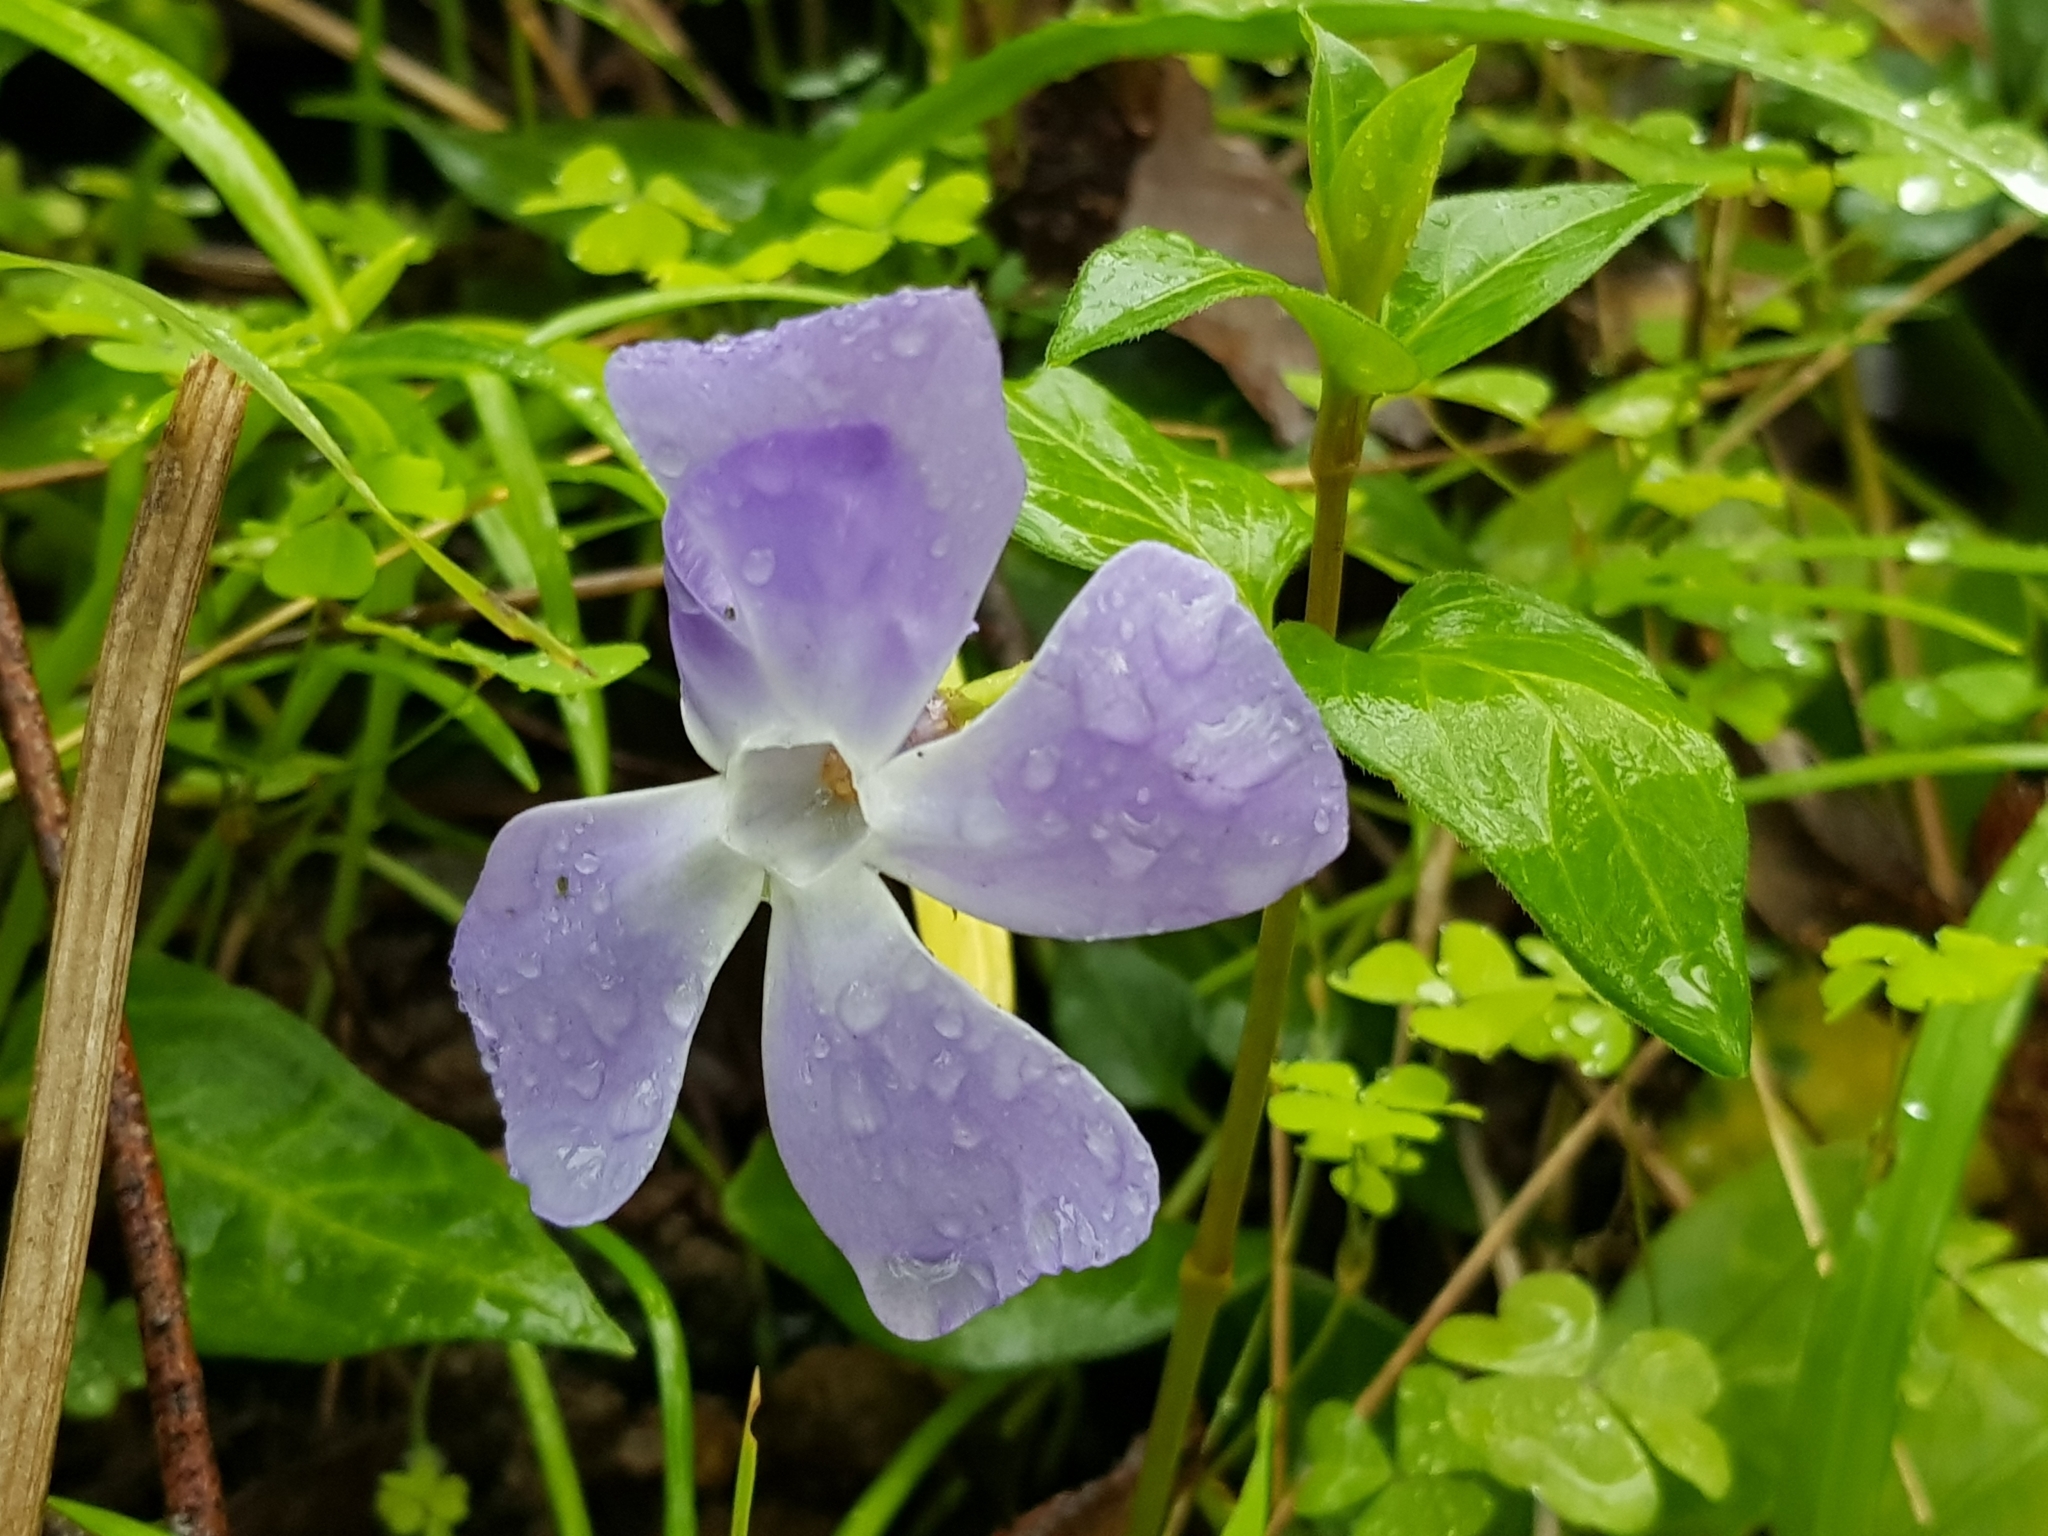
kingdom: Plantae
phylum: Tracheophyta
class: Magnoliopsida
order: Gentianales
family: Apocynaceae
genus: Vinca
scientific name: Vinca major
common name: Greater periwinkle
